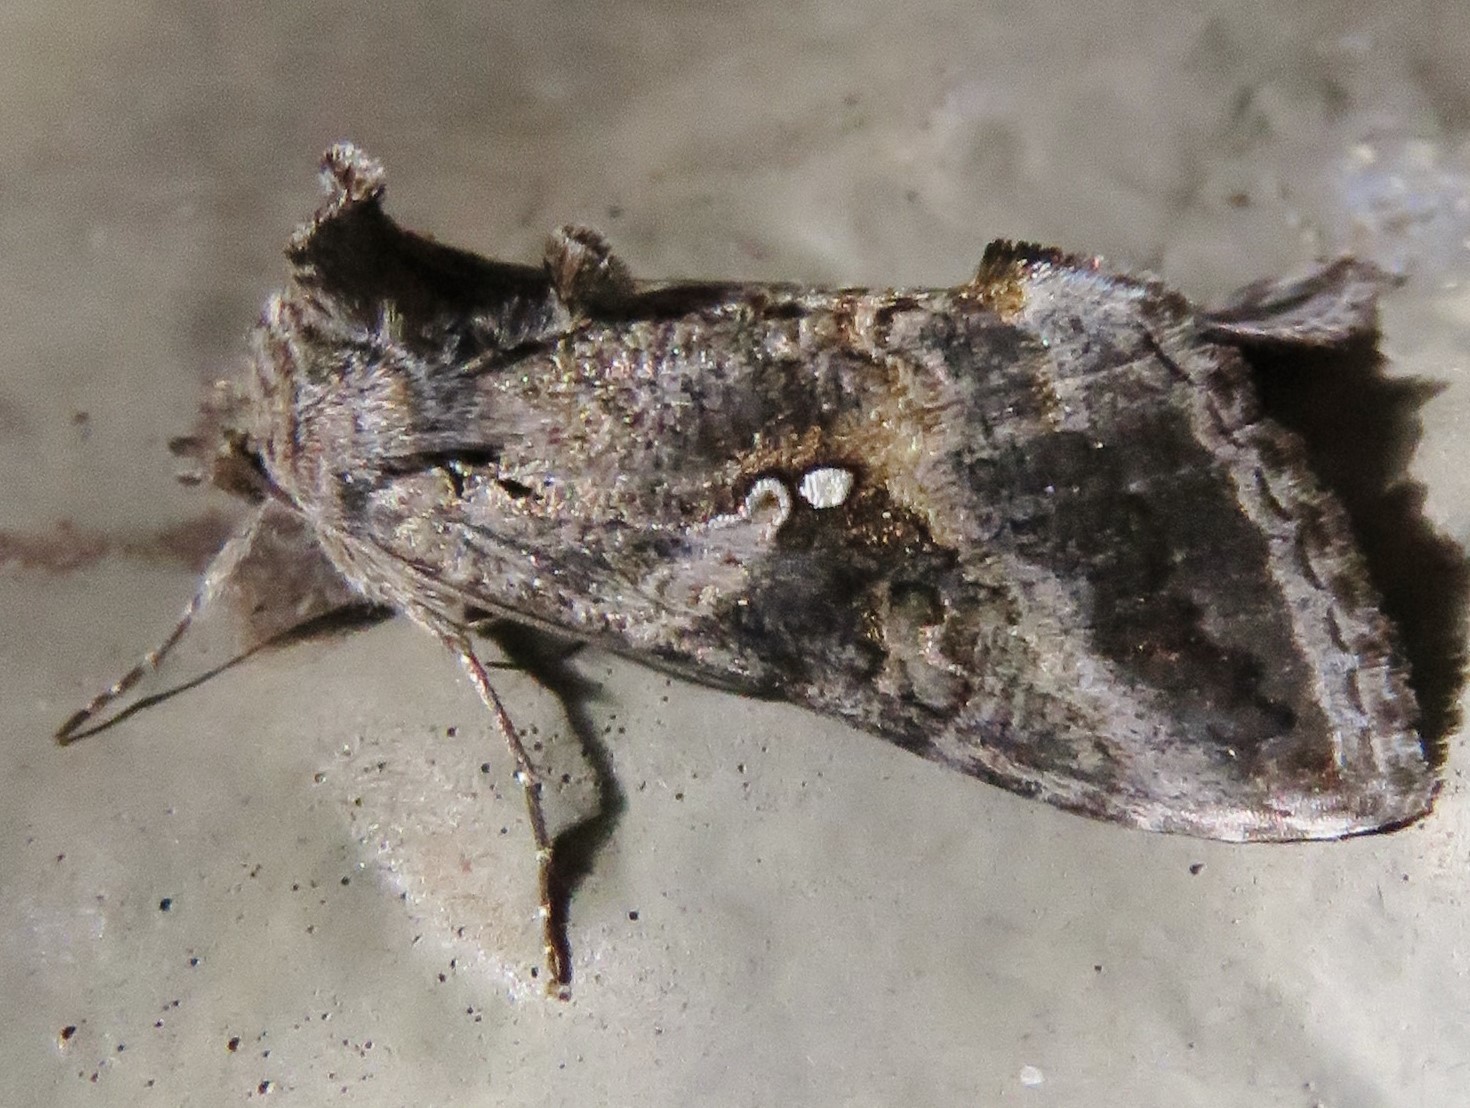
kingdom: Animalia
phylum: Arthropoda
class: Insecta
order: Lepidoptera
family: Noctuidae
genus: Rachiplusia
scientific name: Rachiplusia ou
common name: Gray looper moth
